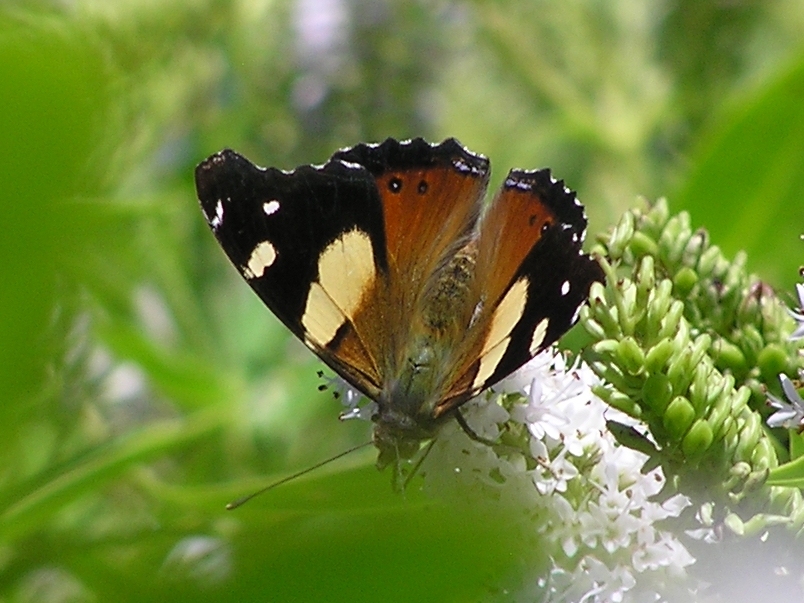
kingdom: Animalia
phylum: Arthropoda
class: Insecta
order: Lepidoptera
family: Nymphalidae
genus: Vanessa
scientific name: Vanessa itea
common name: Yellow admiral
